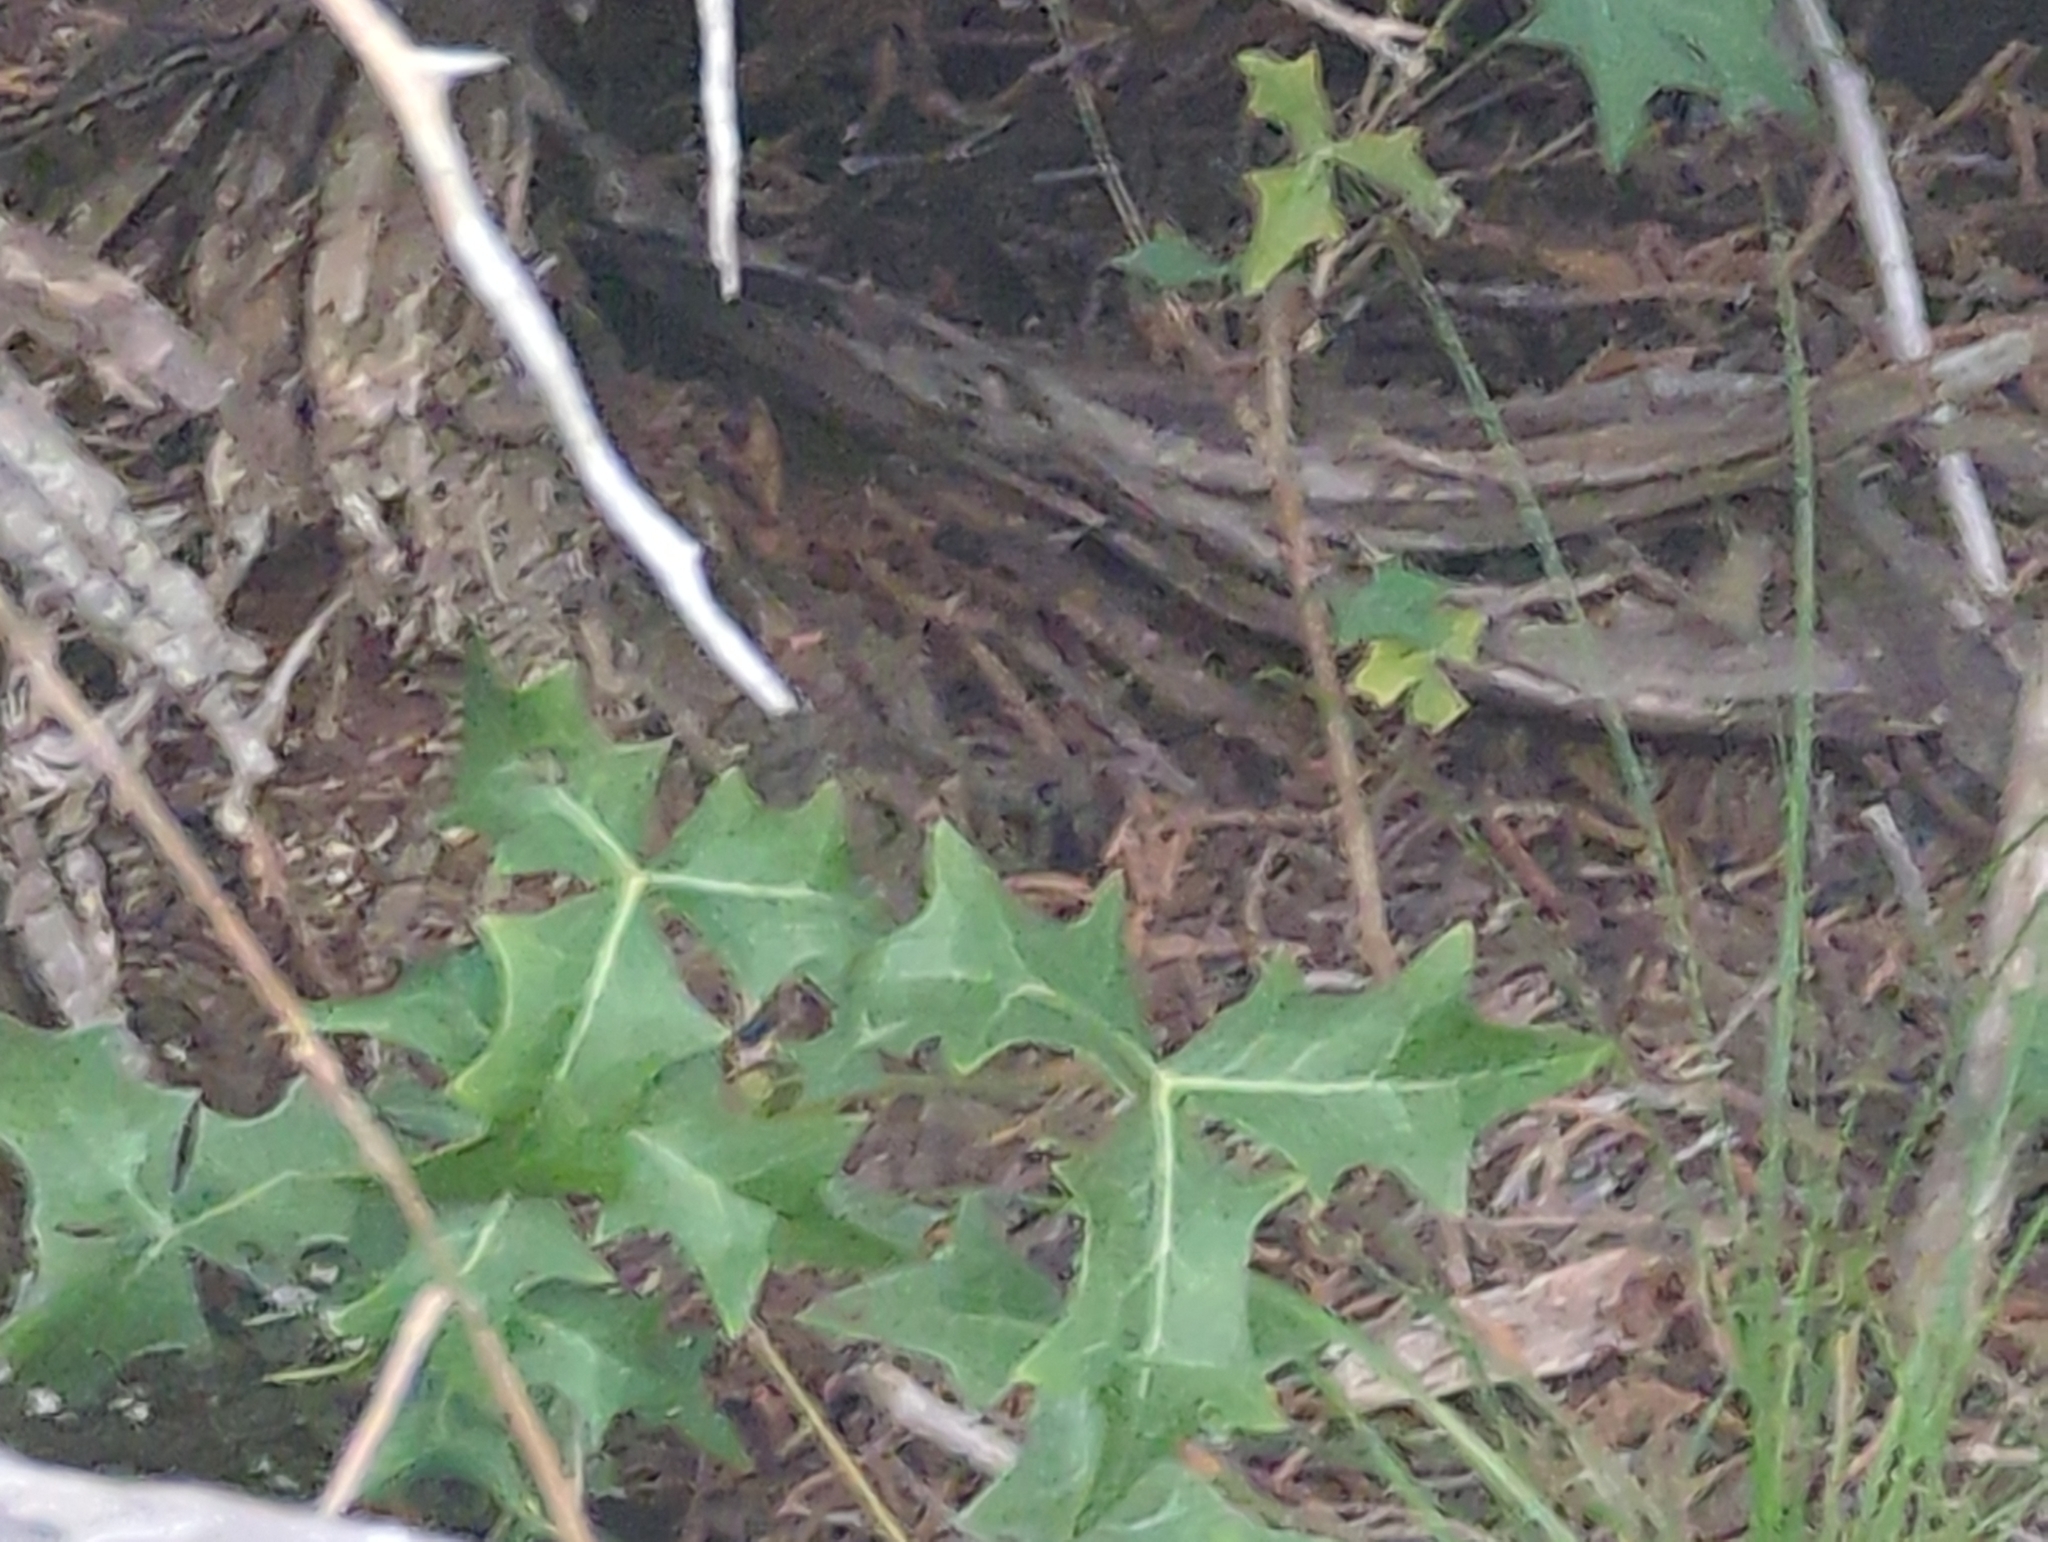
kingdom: Plantae
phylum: Tracheophyta
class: Magnoliopsida
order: Ranunculales
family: Berberidaceae
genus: Alloberberis
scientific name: Alloberberis trifoliolata
